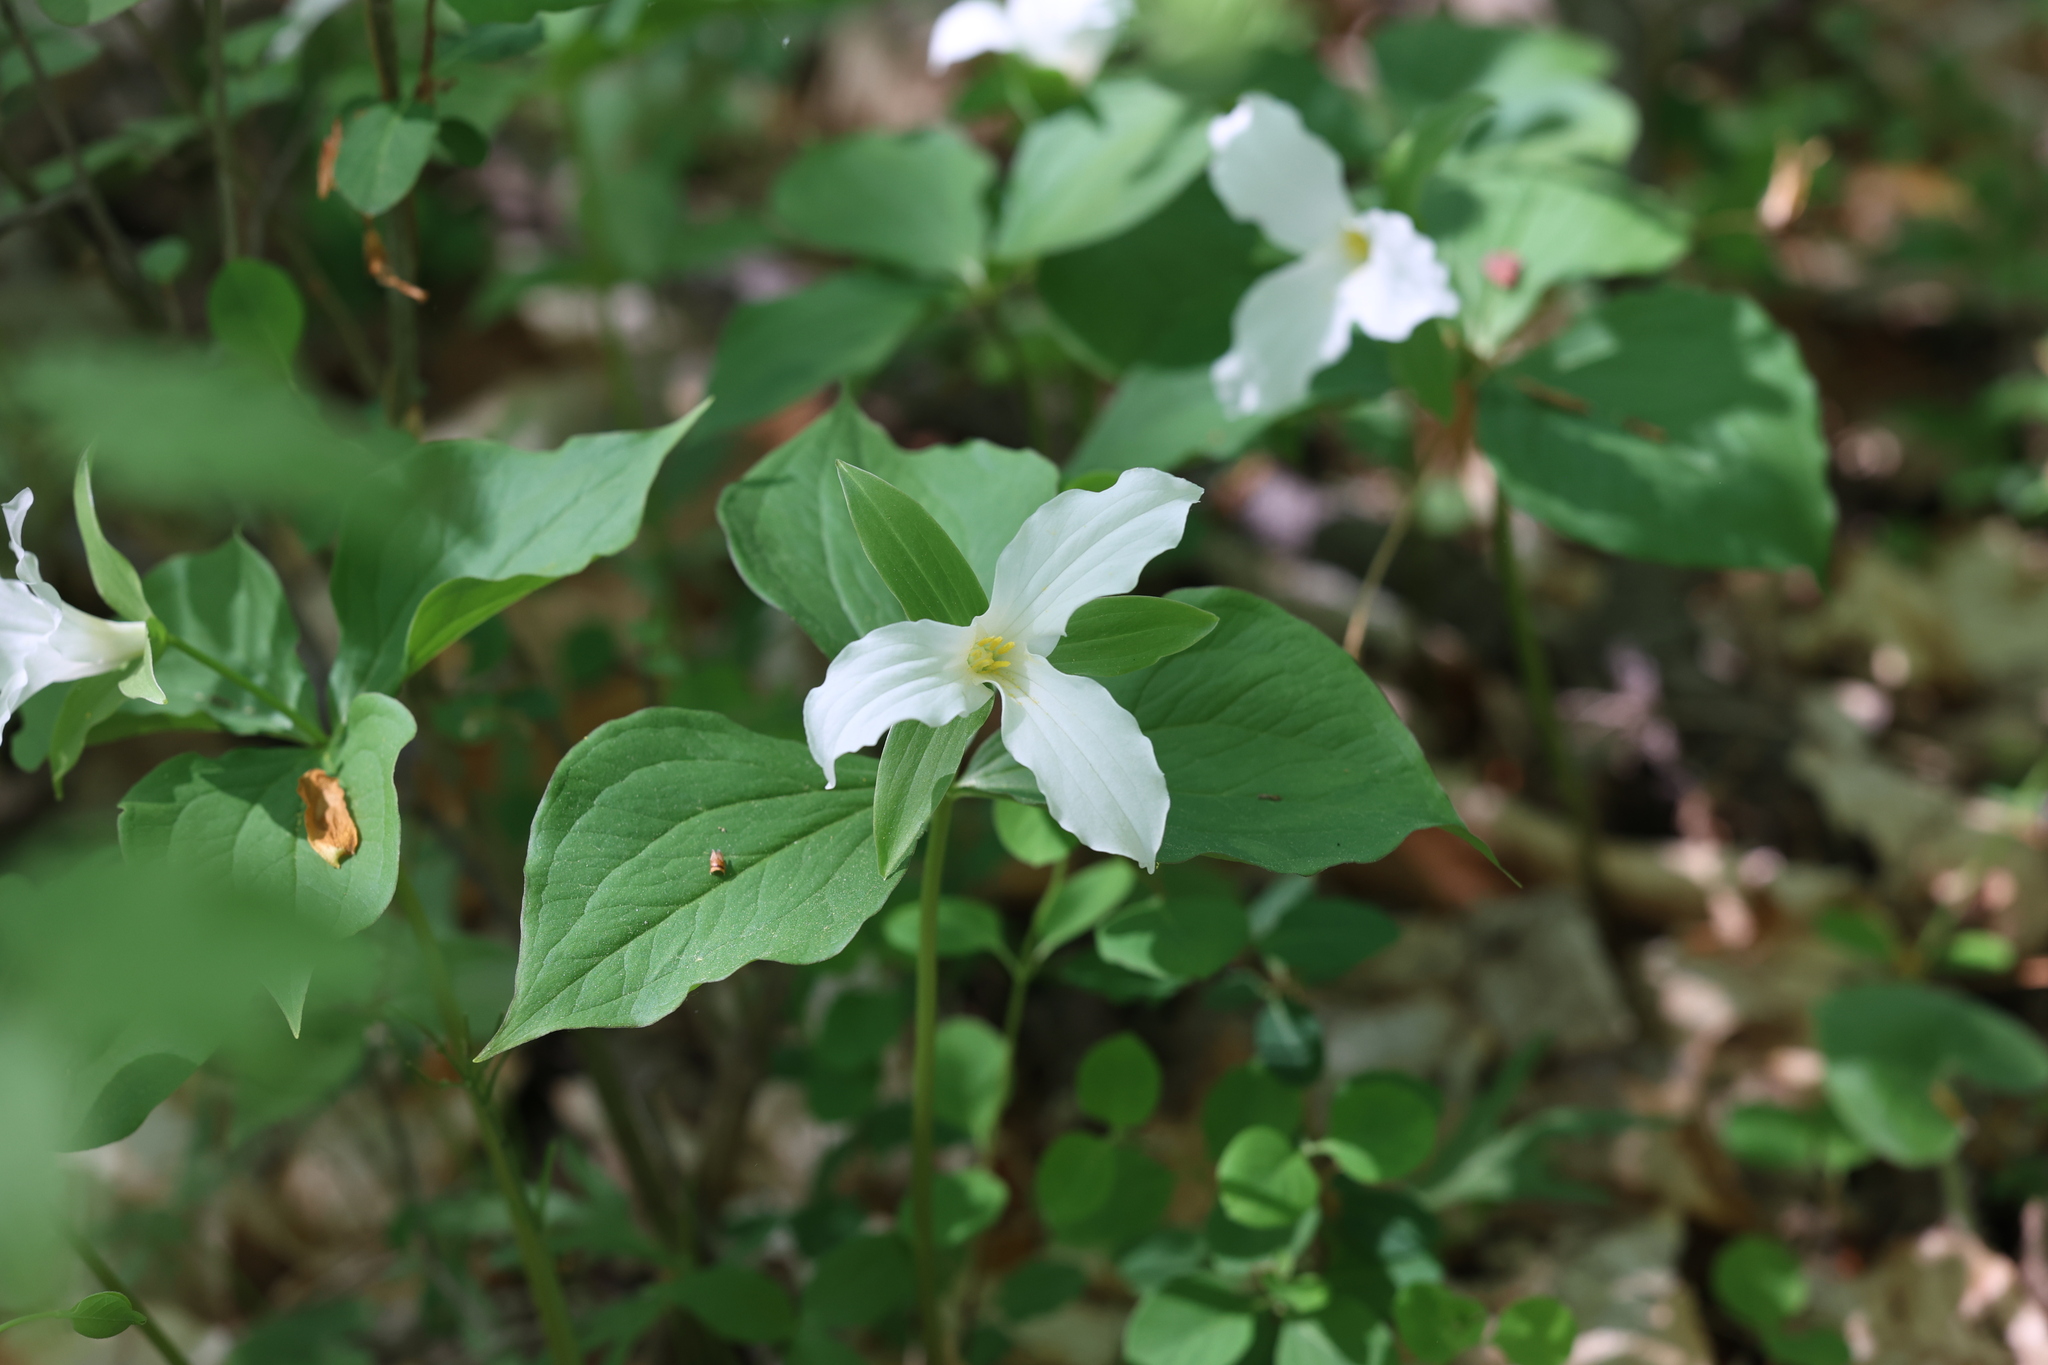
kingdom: Plantae
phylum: Tracheophyta
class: Liliopsida
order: Liliales
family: Melanthiaceae
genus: Trillium
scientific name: Trillium grandiflorum
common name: Great white trillium
